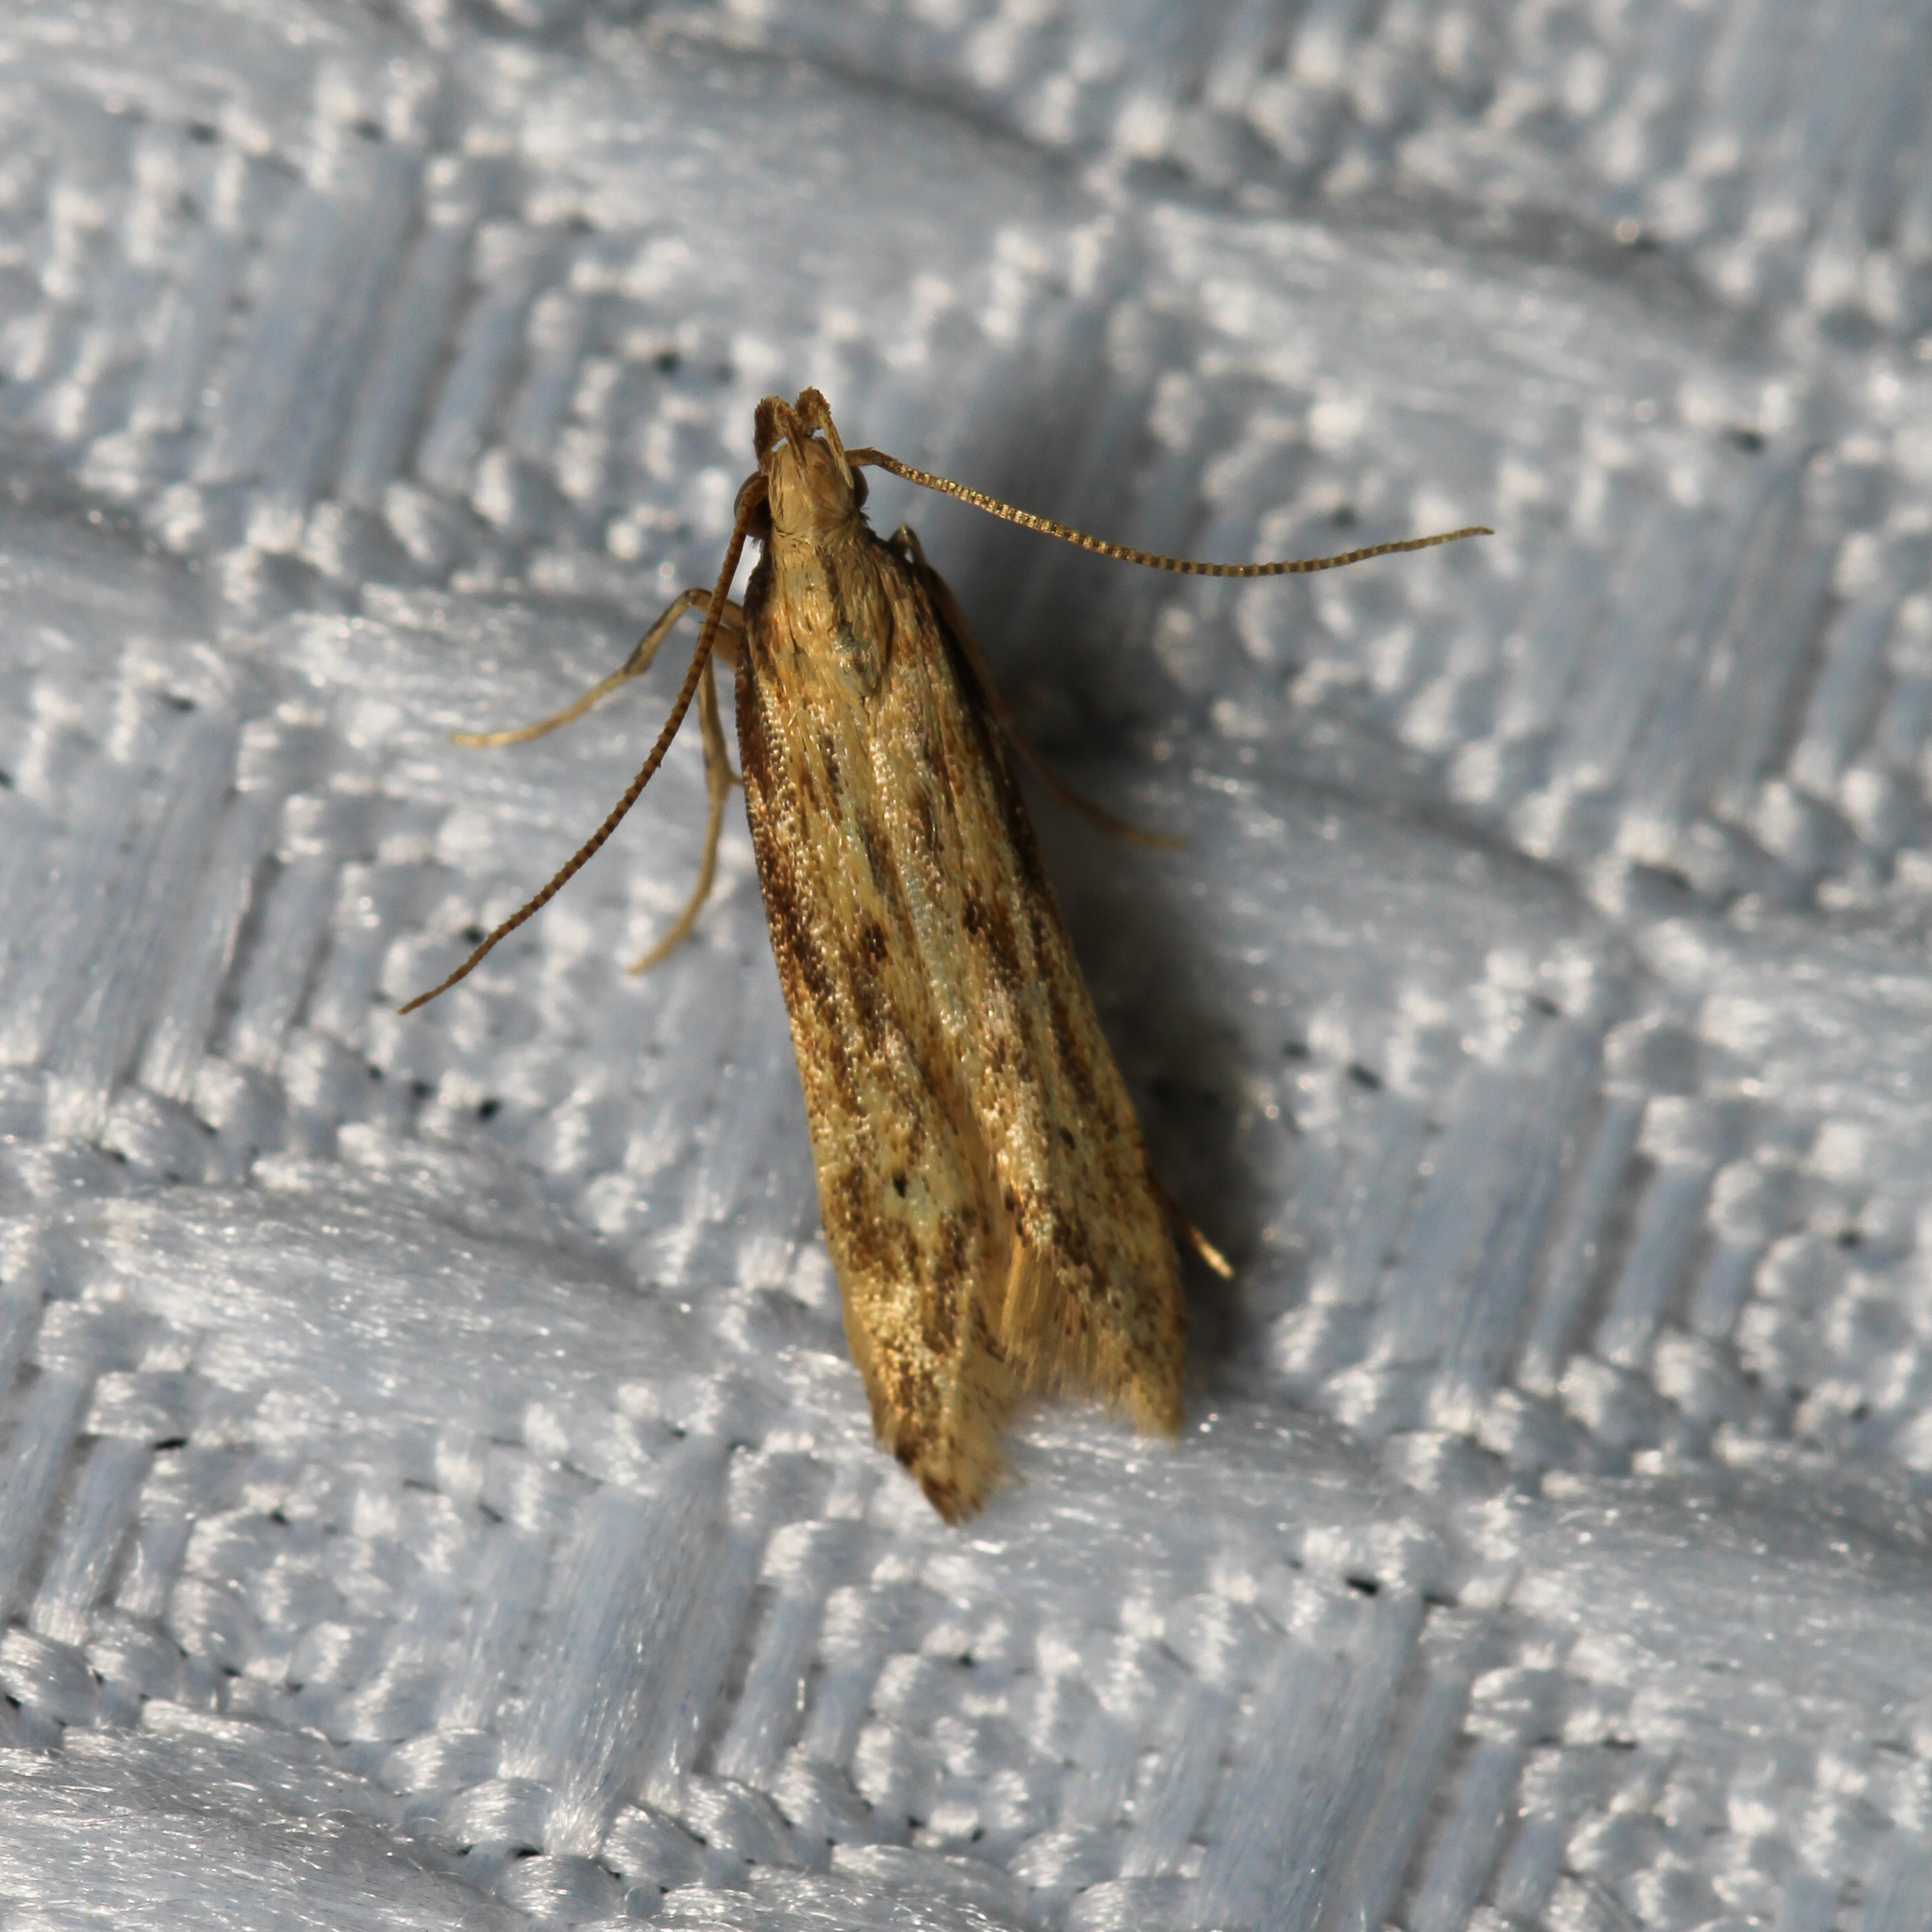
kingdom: Animalia
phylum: Arthropoda
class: Insecta
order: Lepidoptera
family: Gelechiidae
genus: Metzneria
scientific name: Metzneria lappella
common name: Burdock neb
